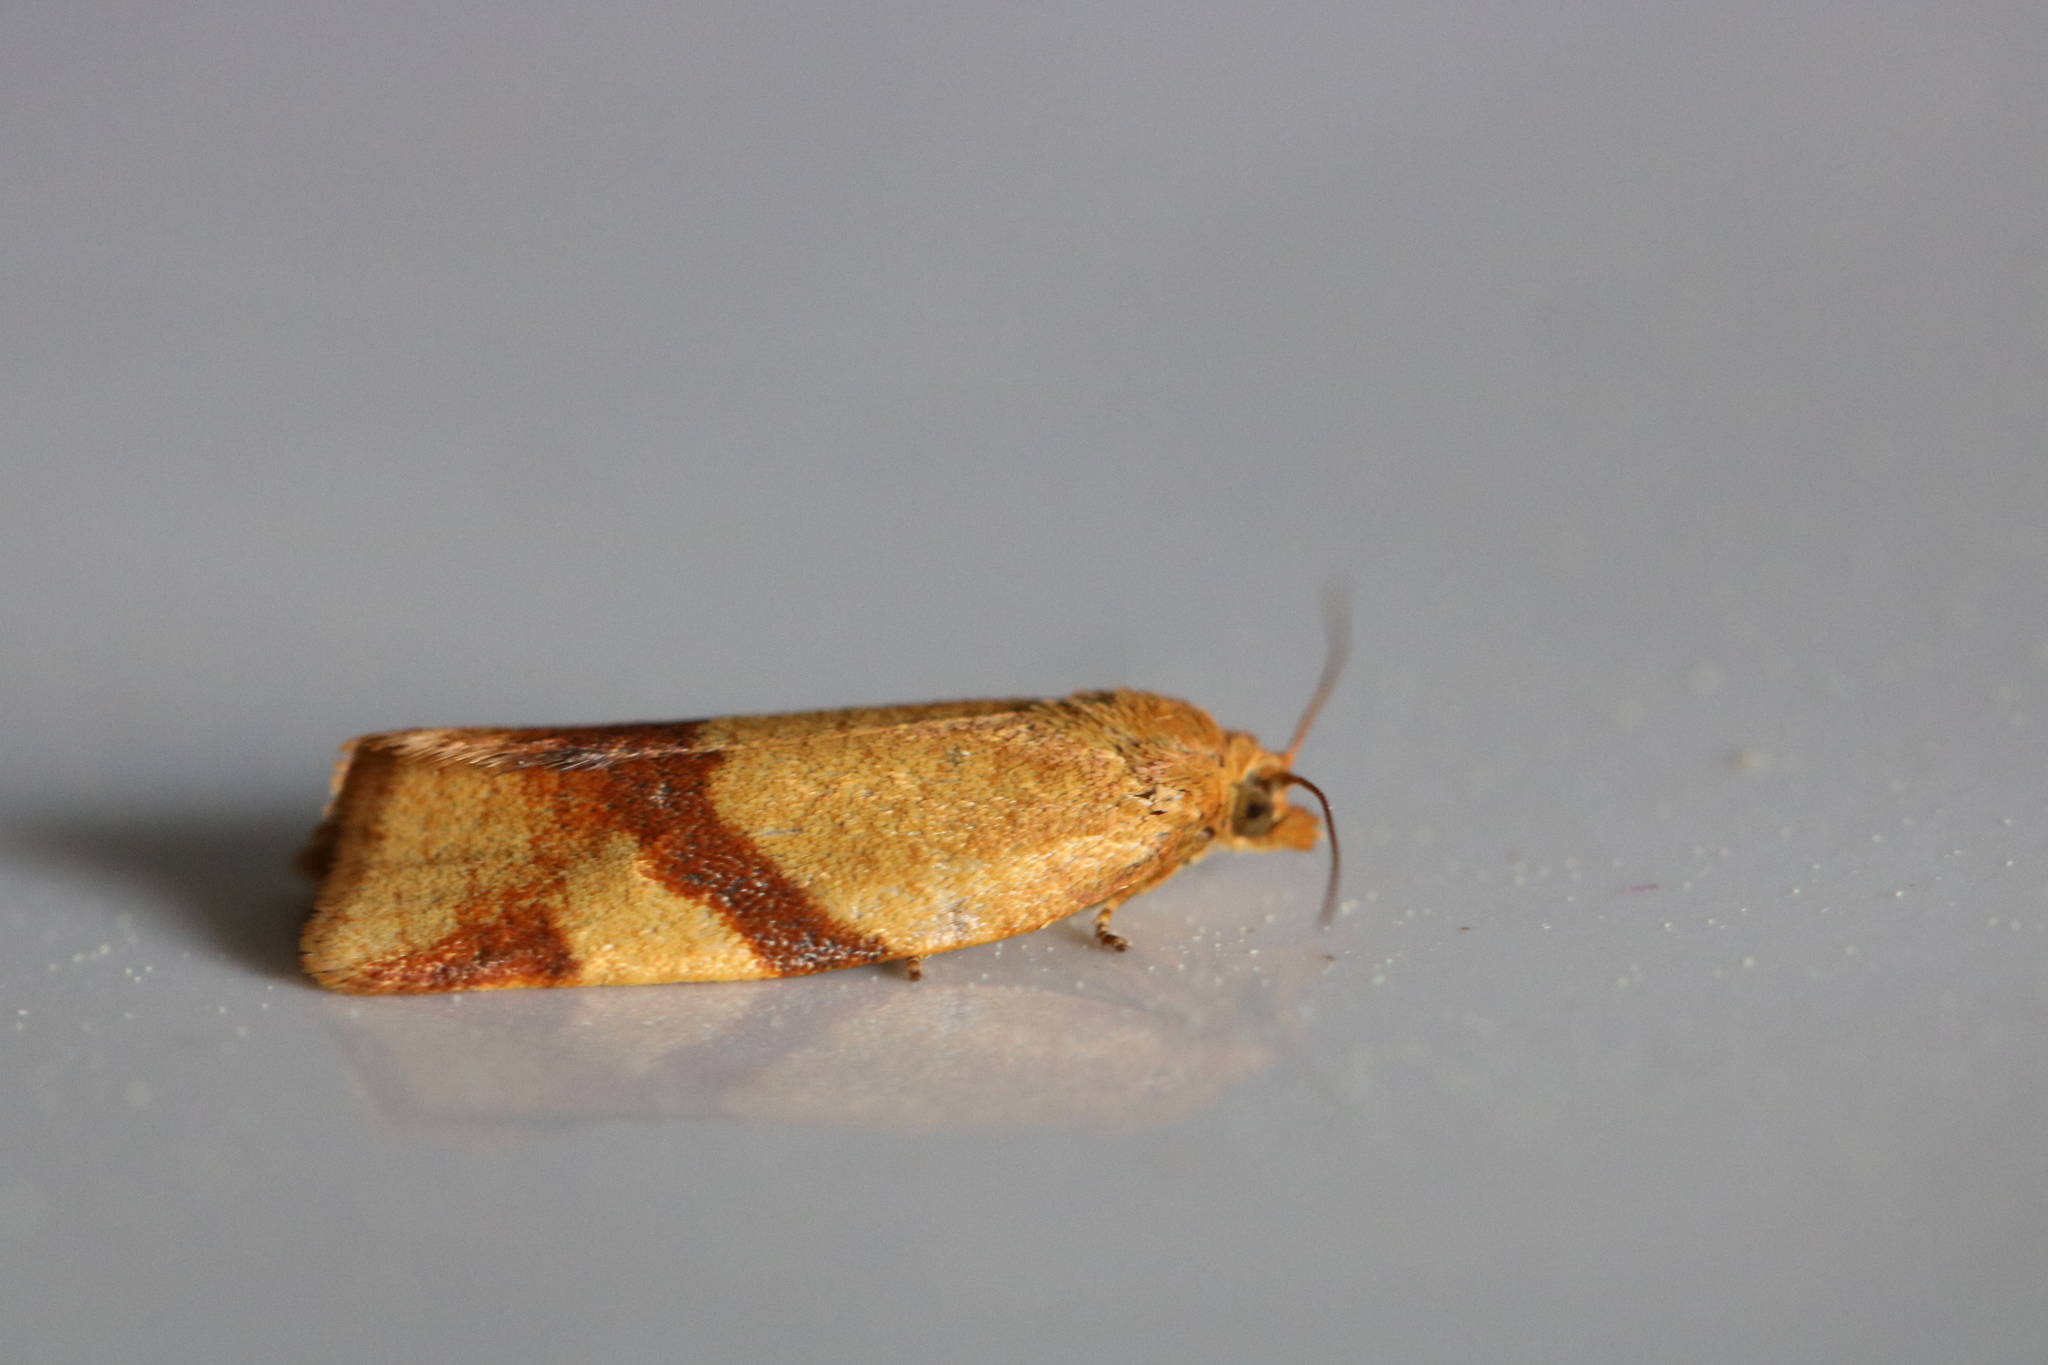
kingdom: Animalia
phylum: Arthropoda
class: Insecta
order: Lepidoptera
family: Tortricidae
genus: Aphelia
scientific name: Aphelia ochreana
